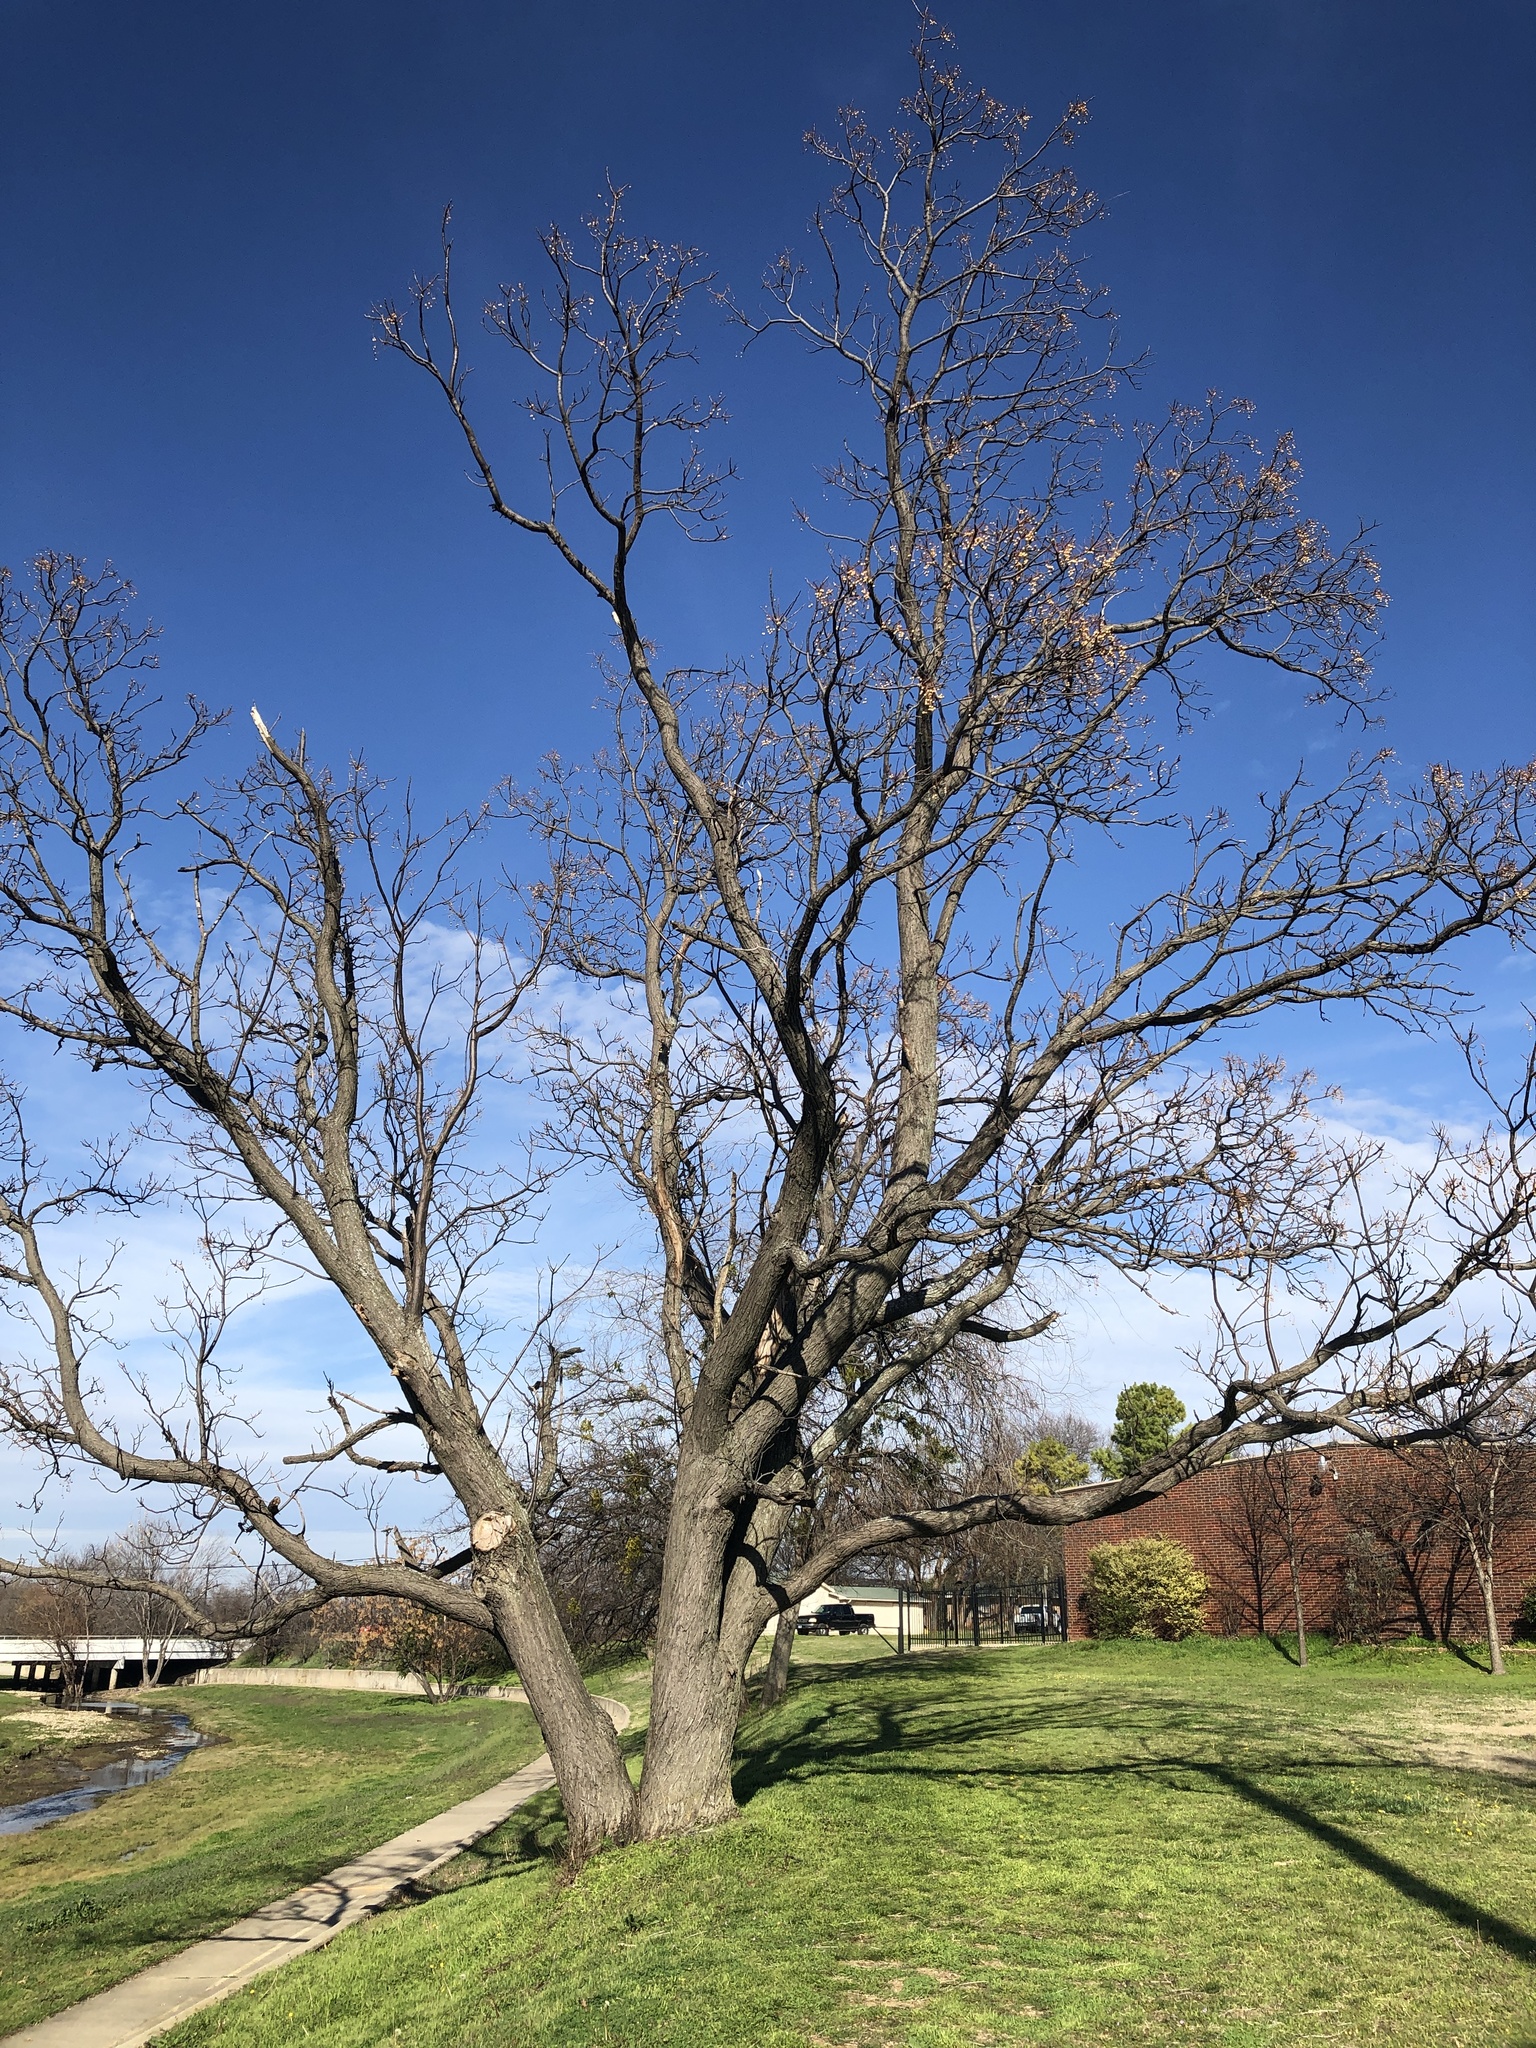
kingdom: Plantae
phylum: Tracheophyta
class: Magnoliopsida
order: Sapindales
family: Meliaceae
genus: Melia
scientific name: Melia azedarach
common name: Chinaberrytree
